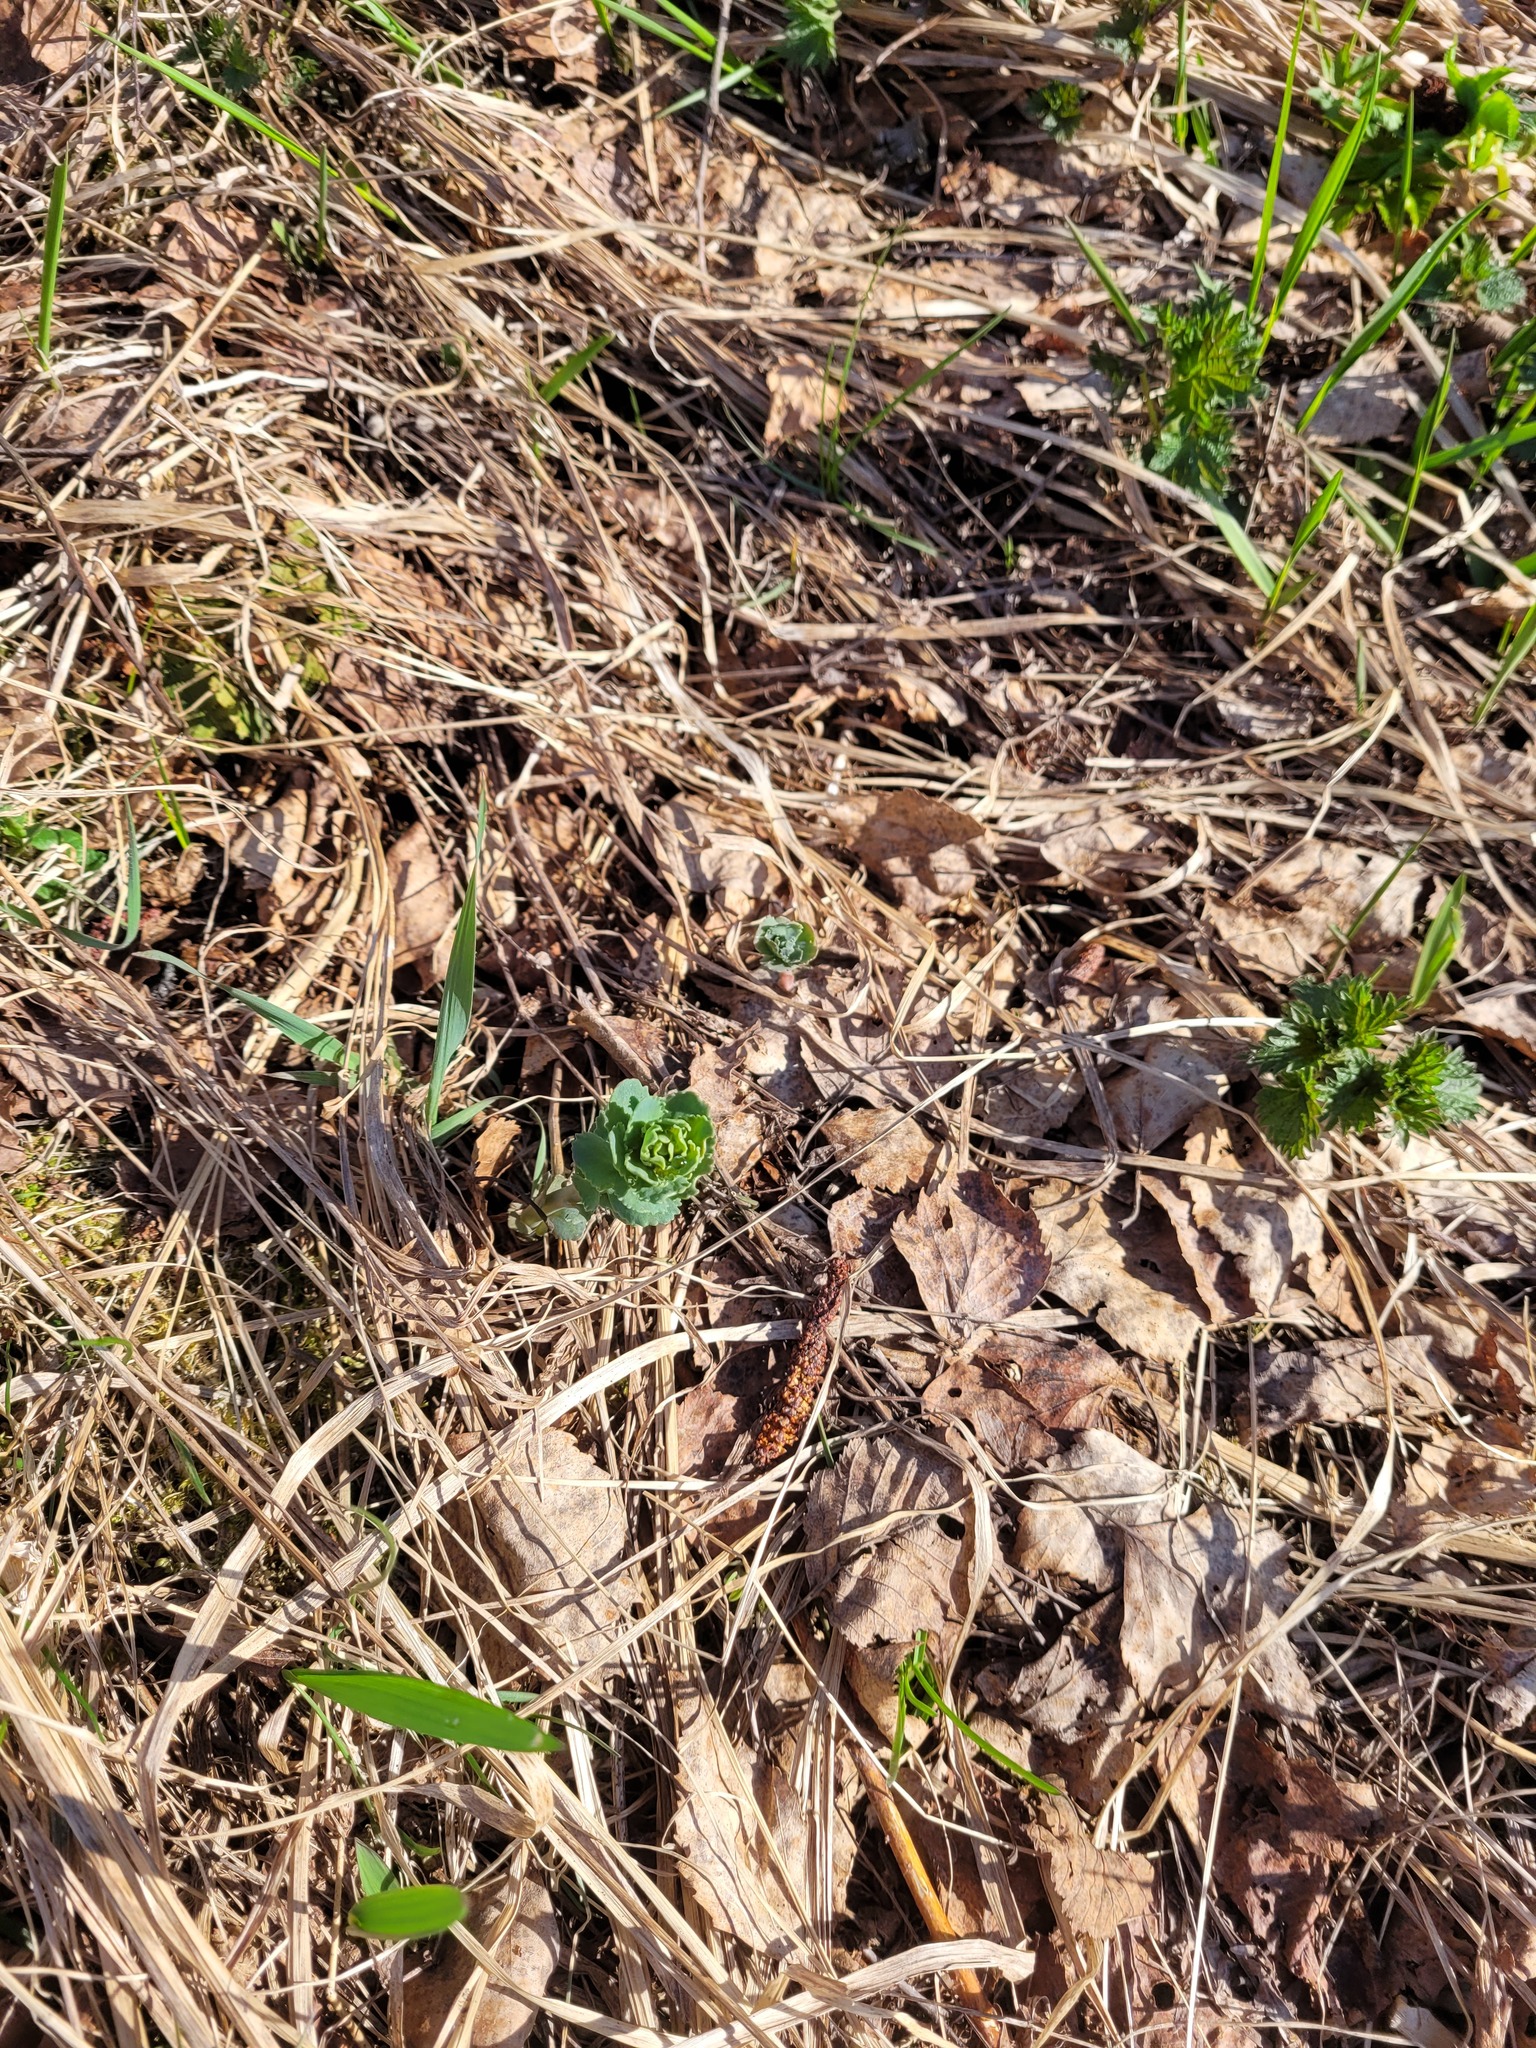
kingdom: Plantae
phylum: Tracheophyta
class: Magnoliopsida
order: Saxifragales
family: Crassulaceae
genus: Hylotelephium
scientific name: Hylotelephium telephium
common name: Live-forever
